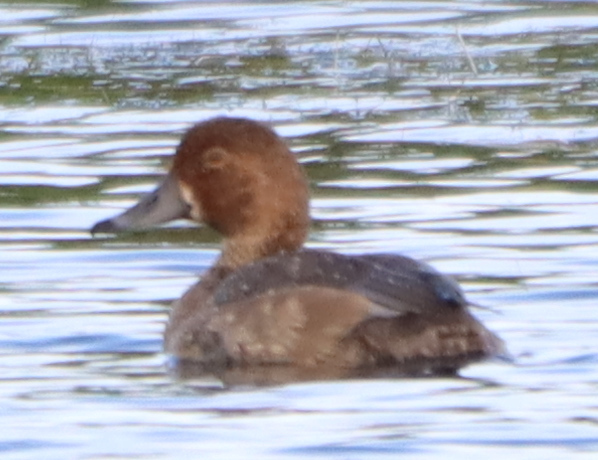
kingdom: Animalia
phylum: Chordata
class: Aves
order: Anseriformes
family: Anatidae
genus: Aythya
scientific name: Aythya americana
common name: Redhead
